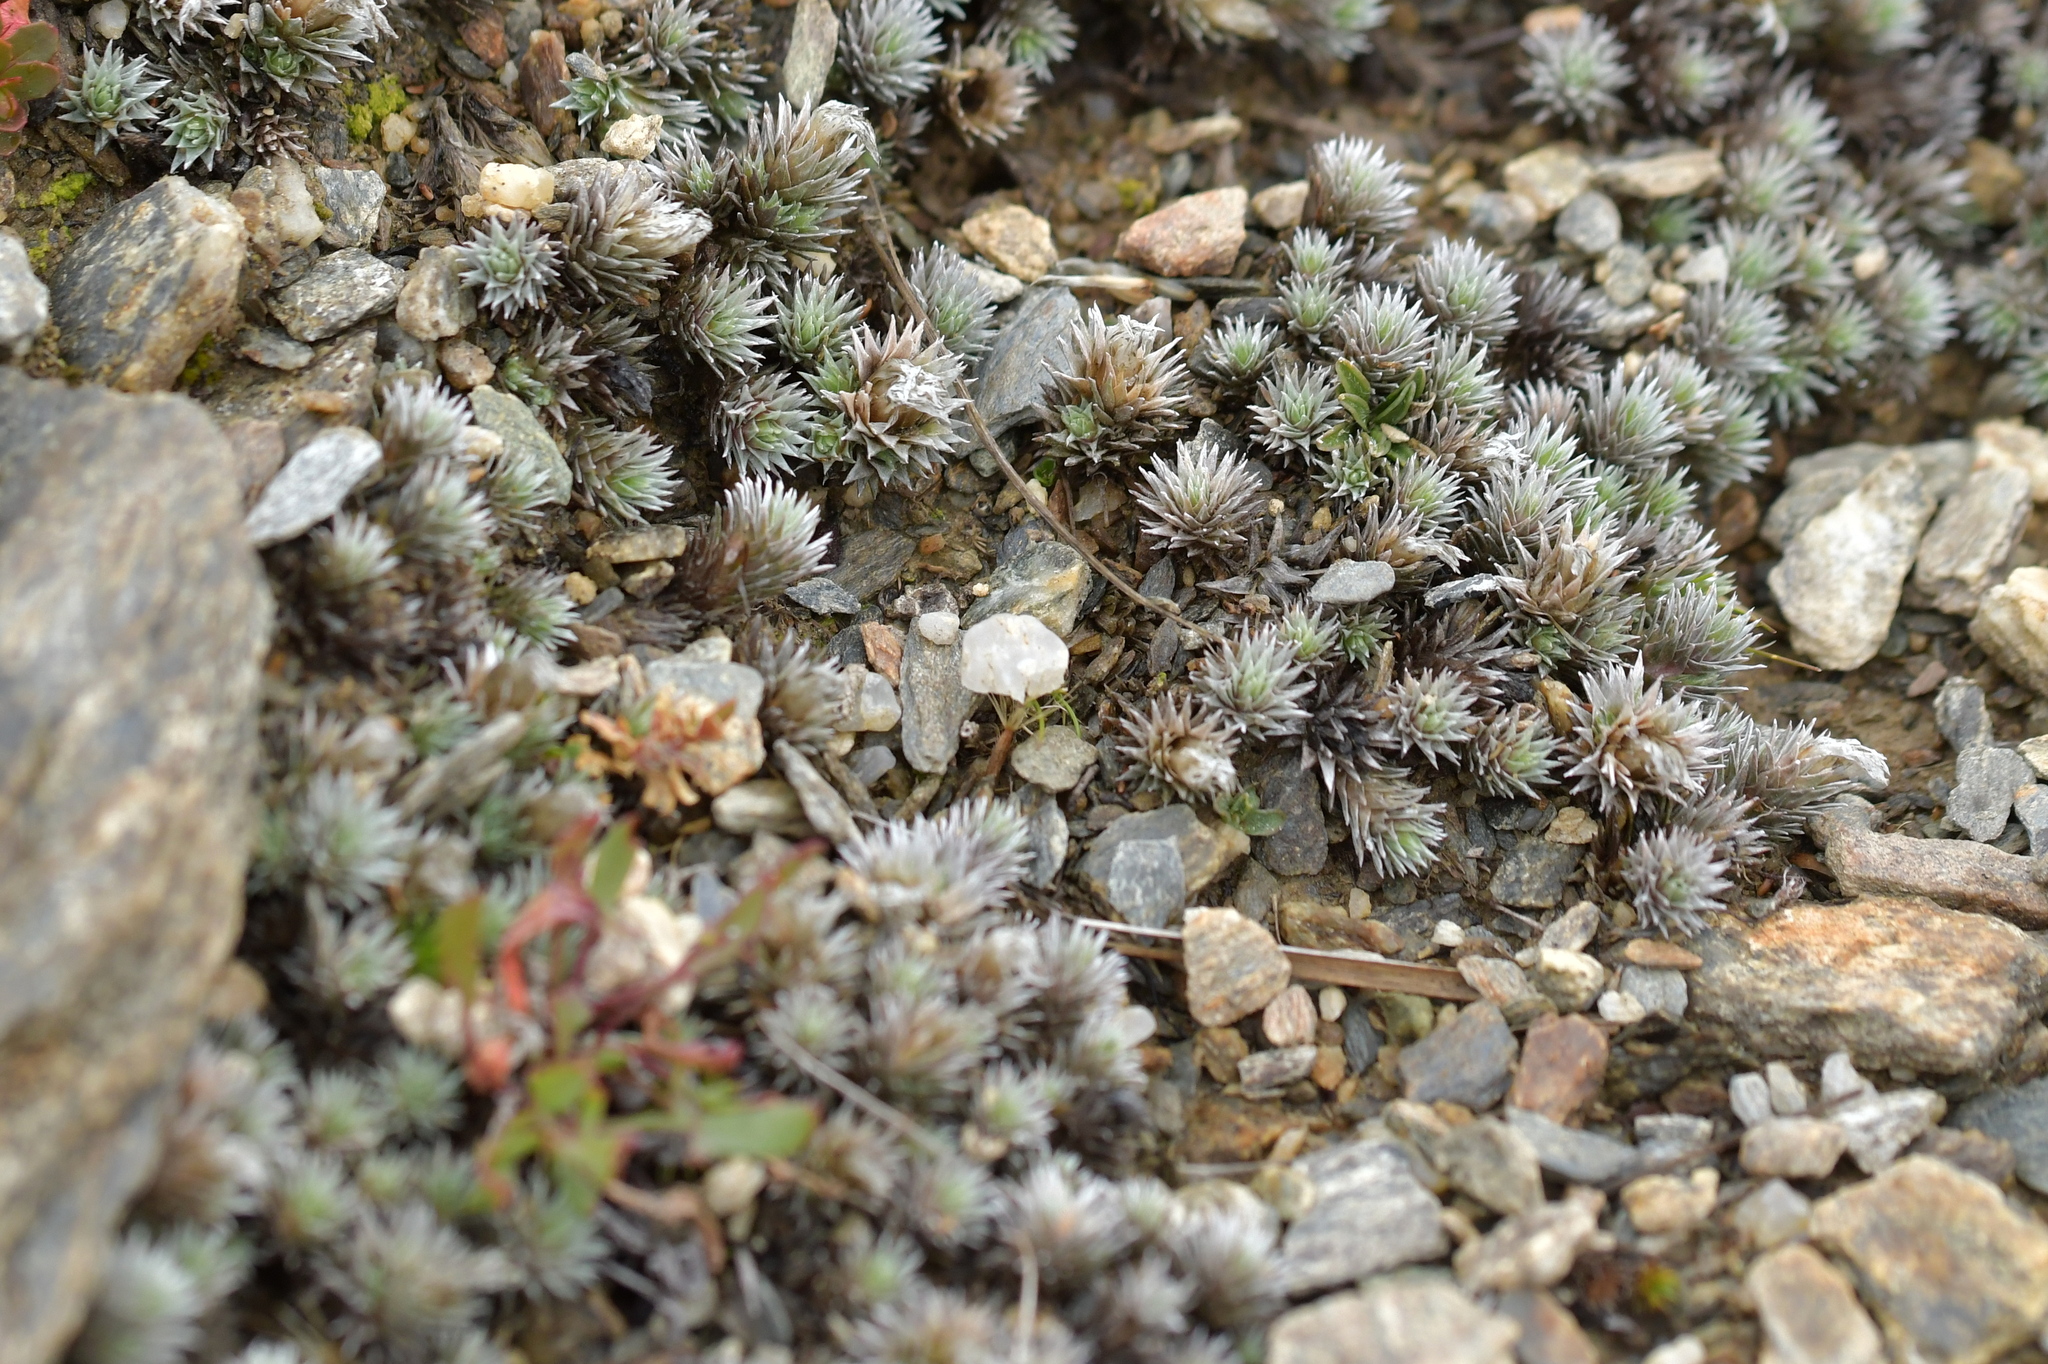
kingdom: Plantae
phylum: Tracheophyta
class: Magnoliopsida
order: Asterales
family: Asteraceae
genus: Raoulia
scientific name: Raoulia grandiflora
